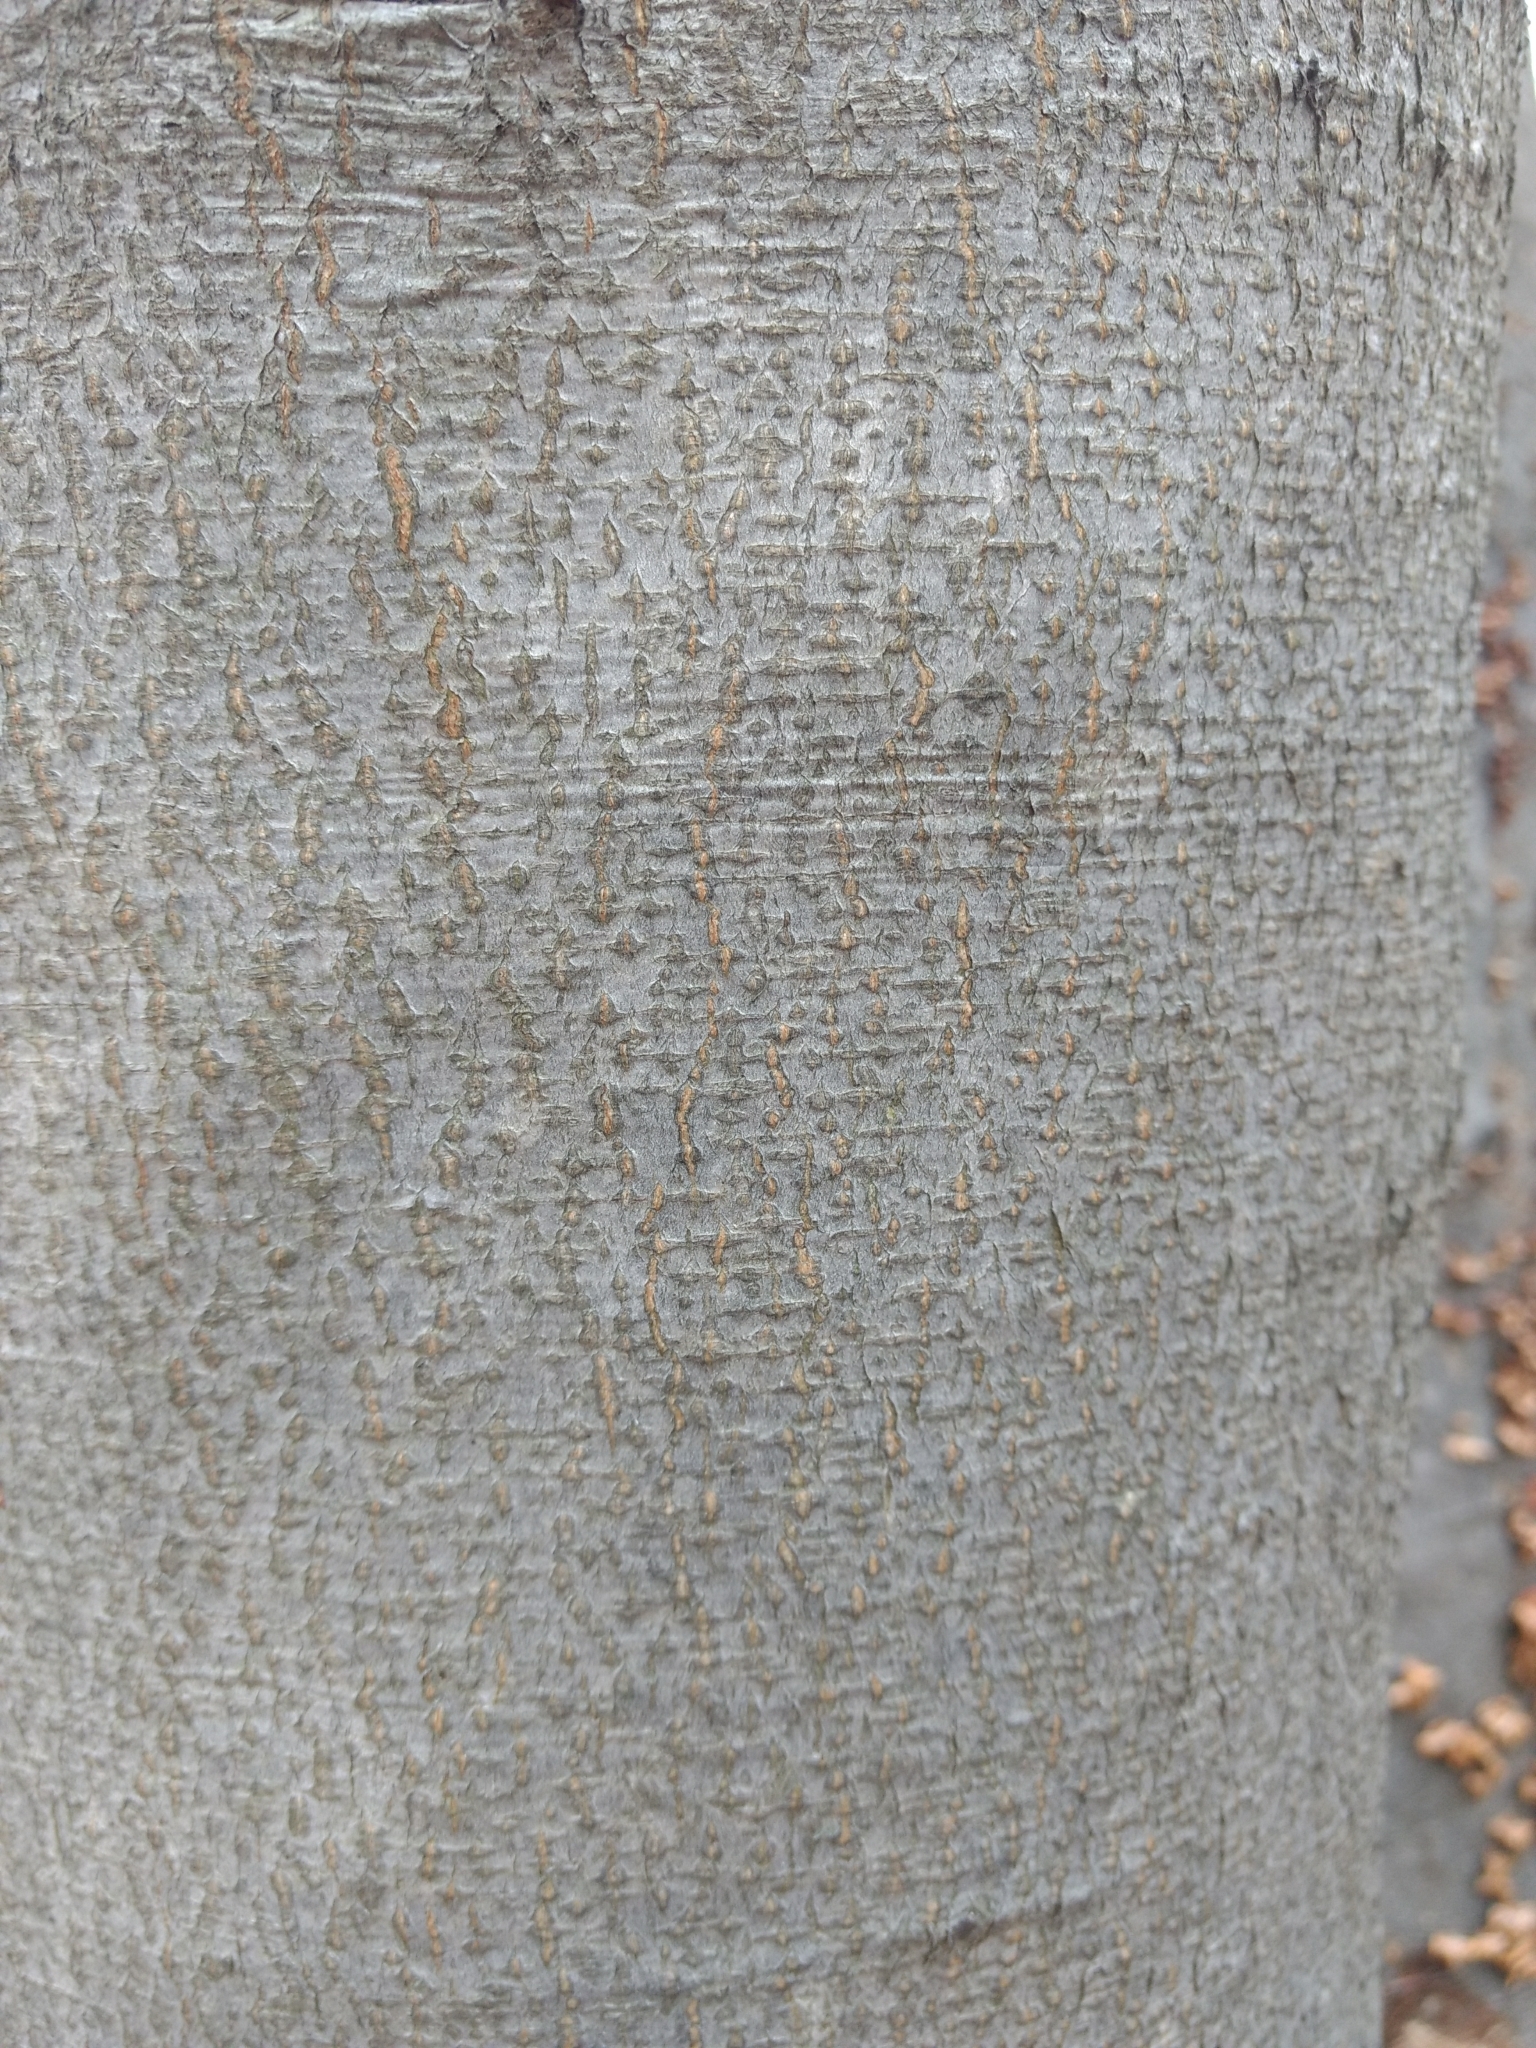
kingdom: Plantae
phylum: Tracheophyta
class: Magnoliopsida
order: Fagales
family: Fagaceae
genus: Fagus
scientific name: Fagus grandifolia
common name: American beech
